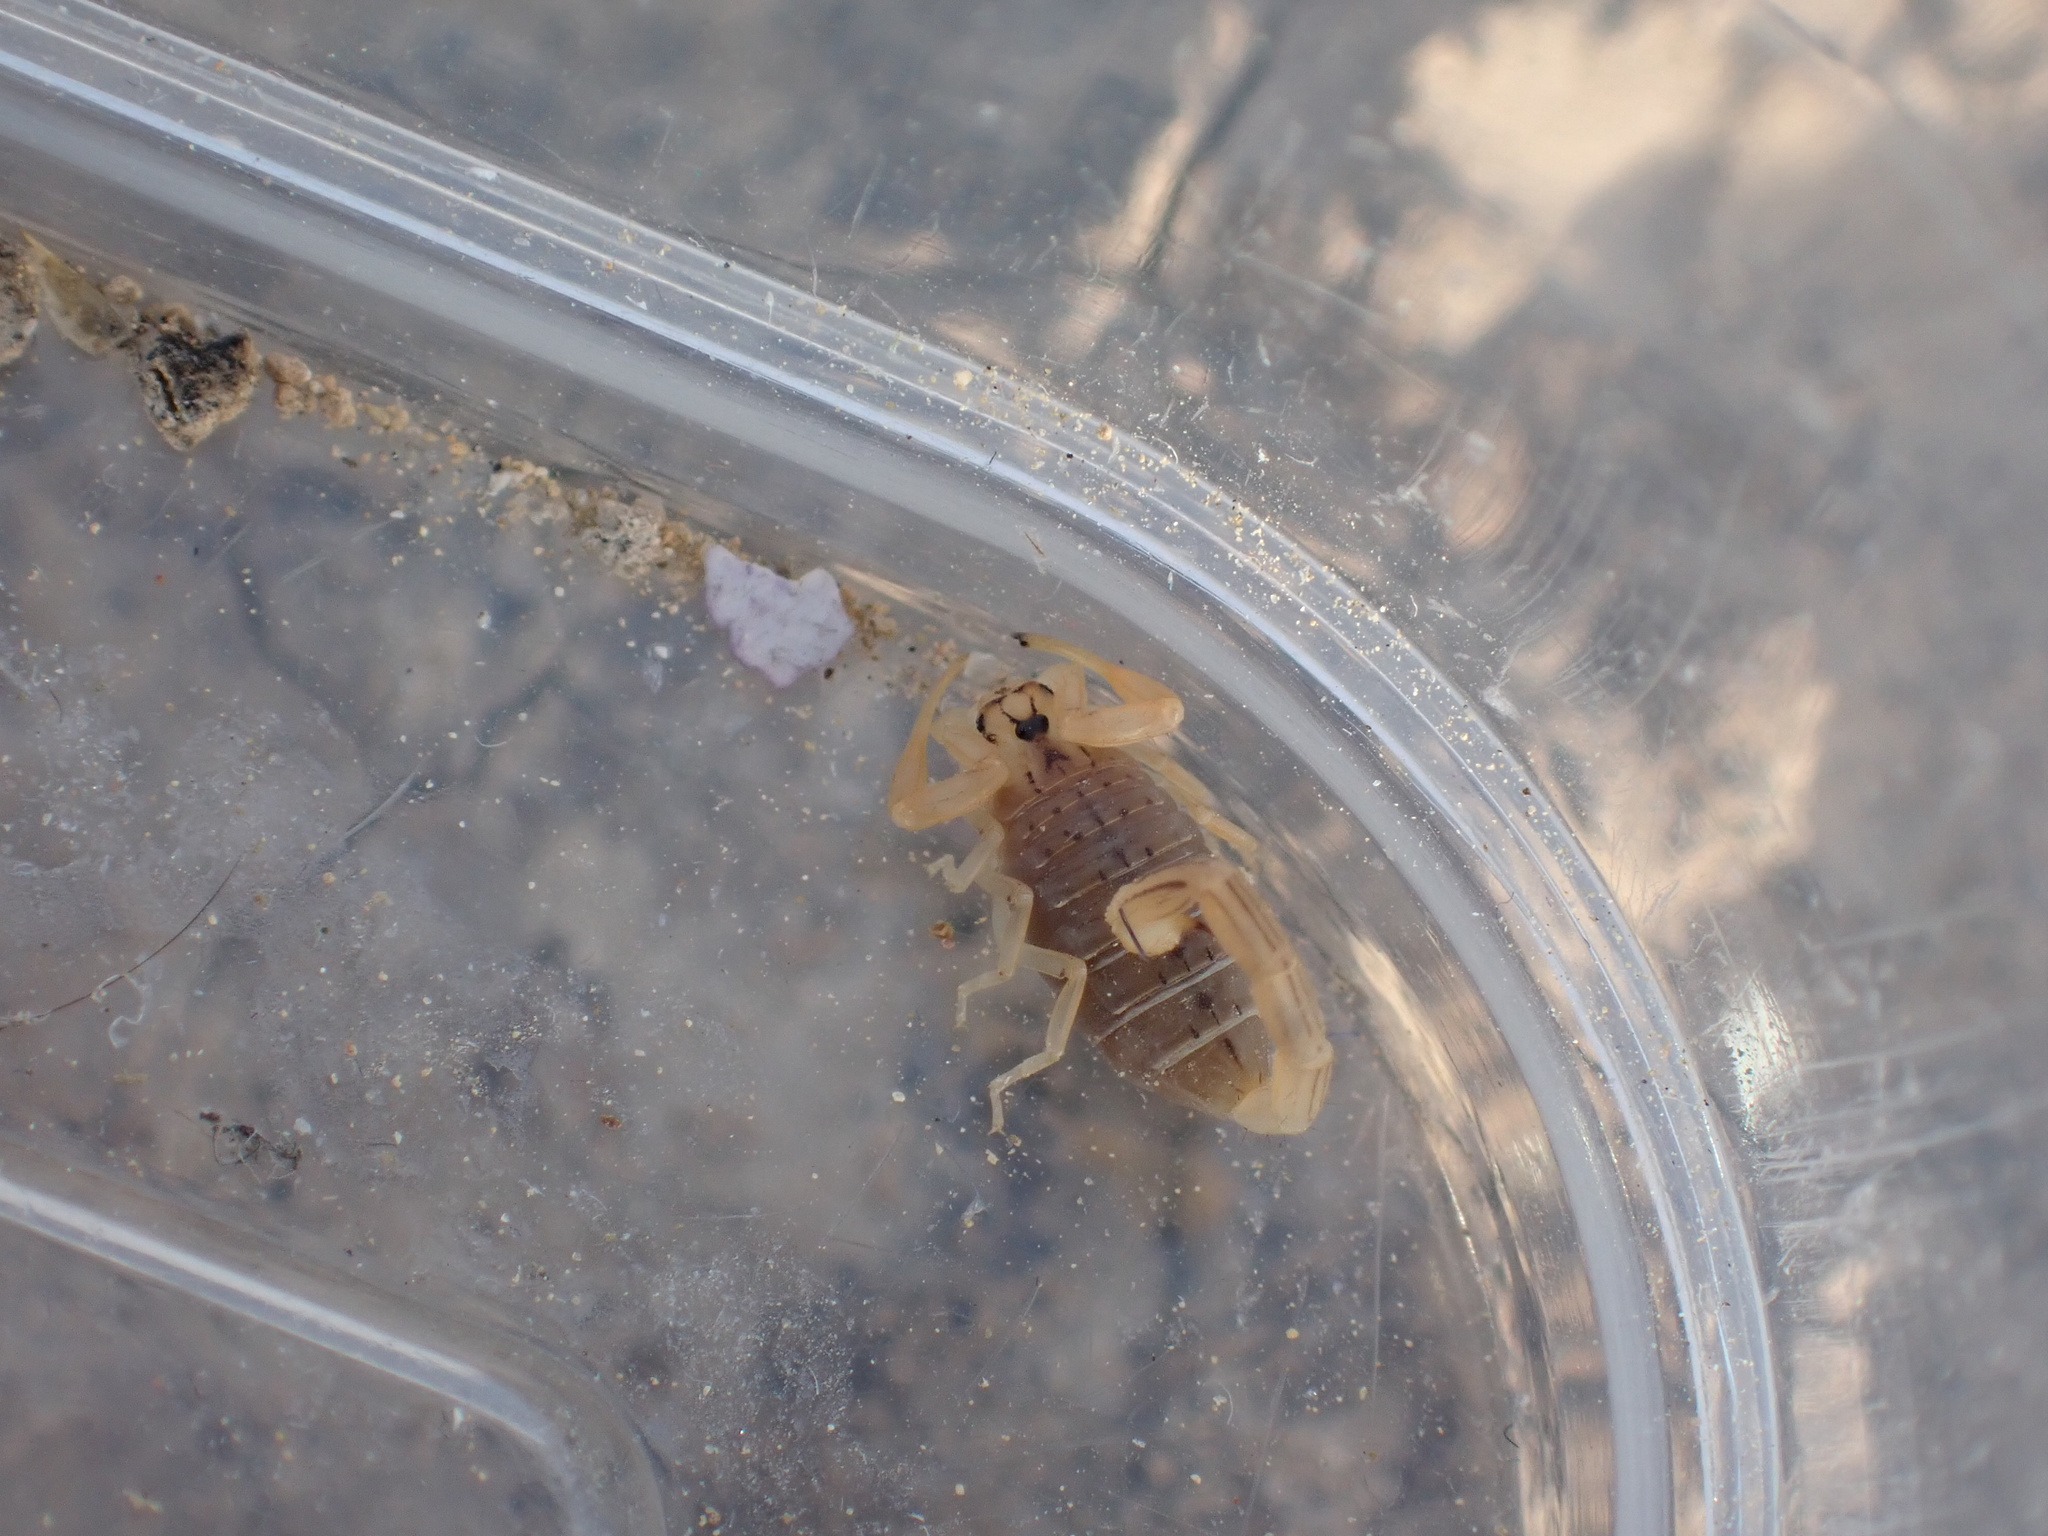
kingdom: Animalia
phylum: Arthropoda
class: Arachnida
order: Scorpiones
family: Buthidae
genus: Mesobuthus
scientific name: Mesobuthus crucittii
